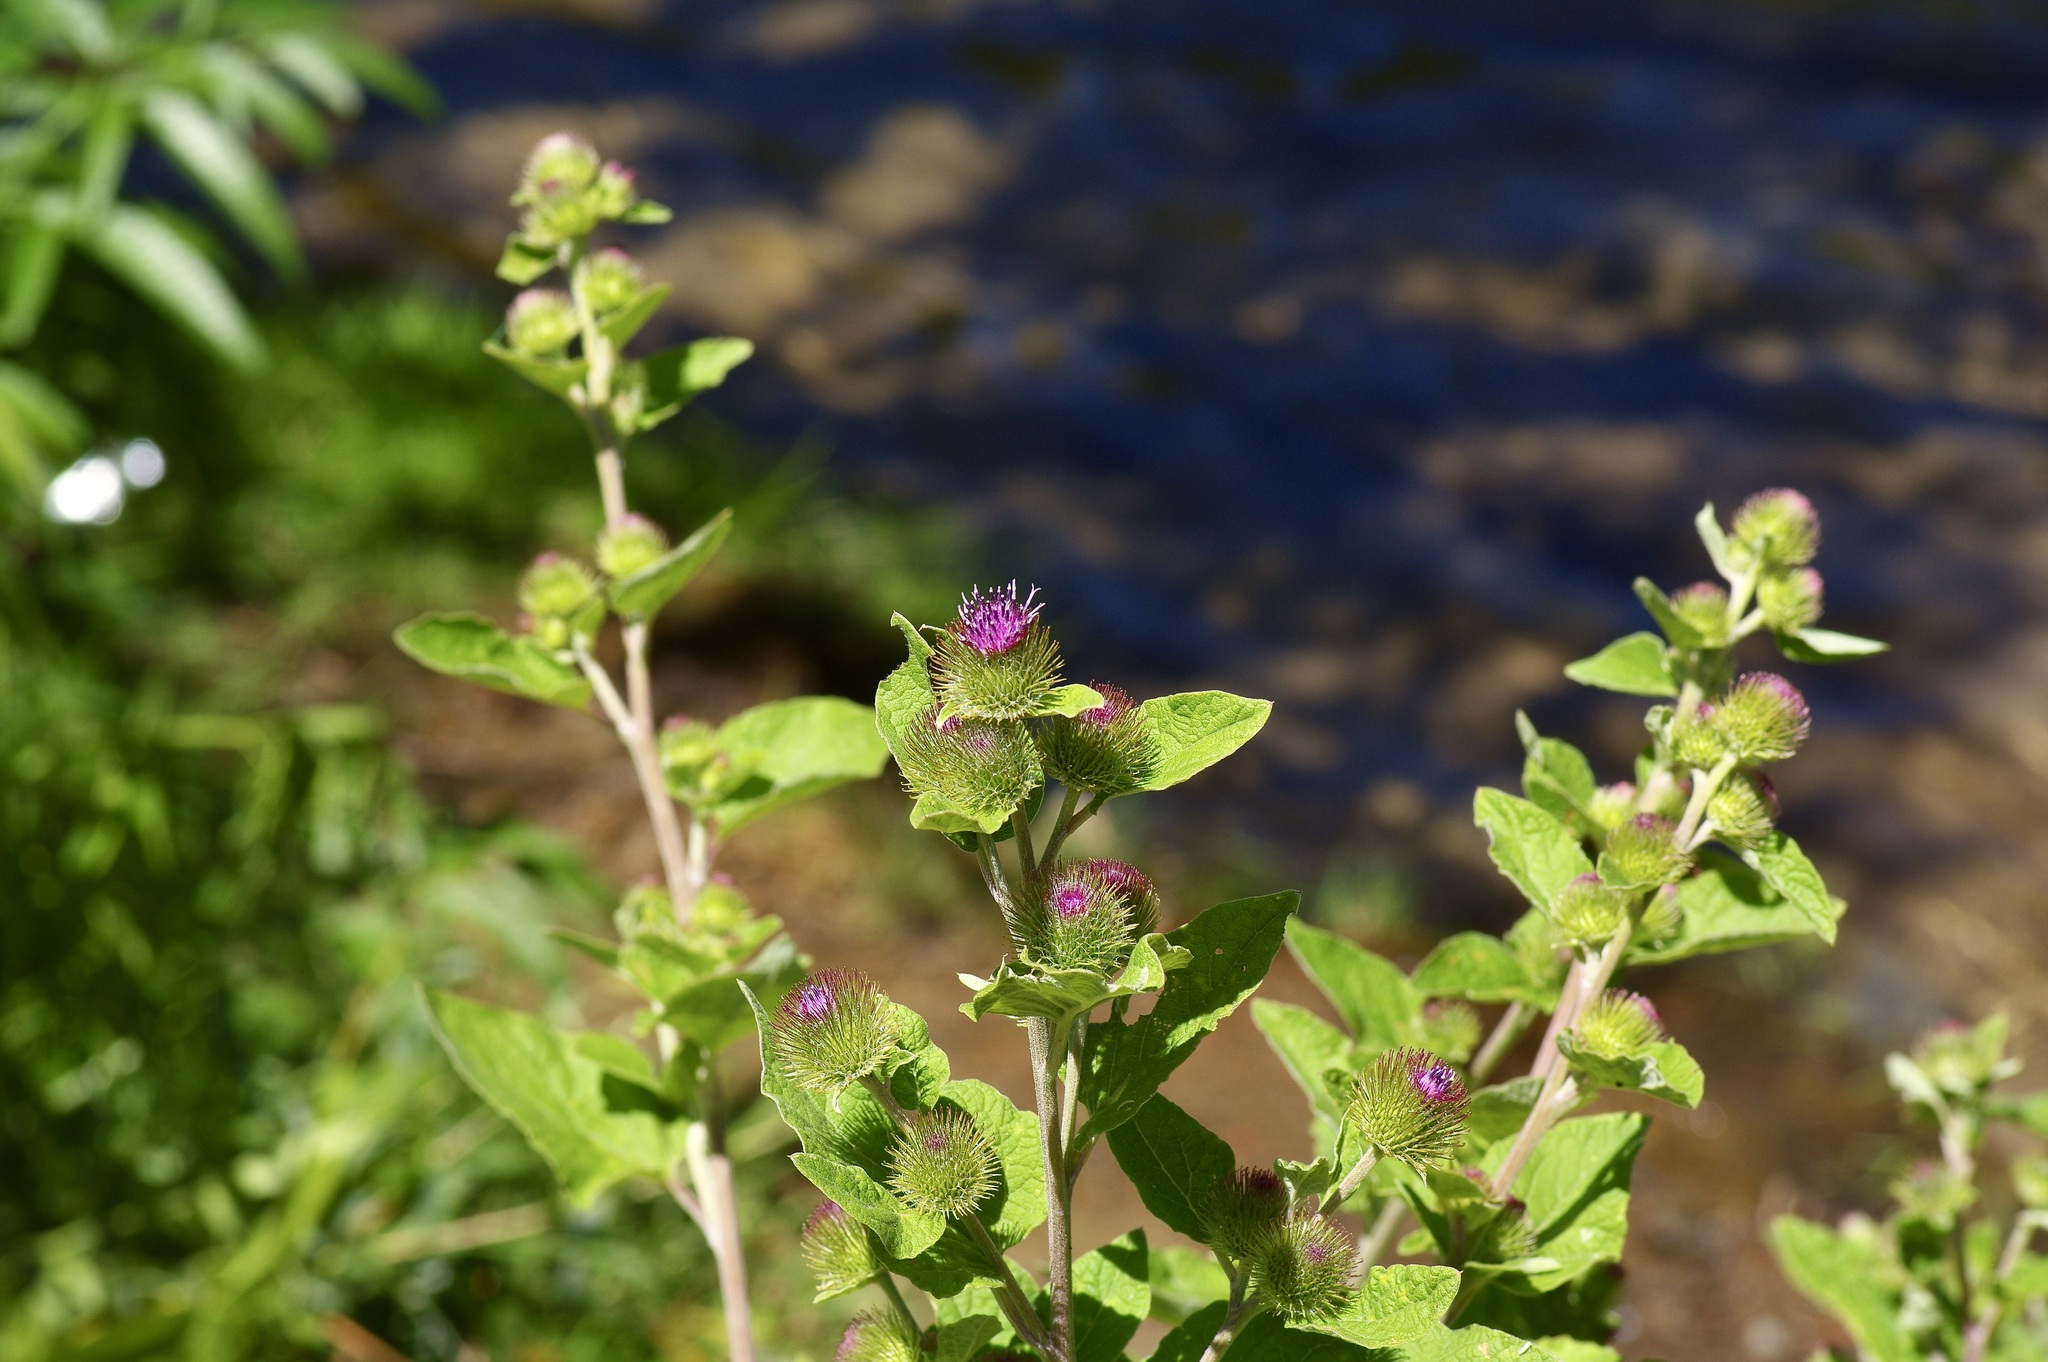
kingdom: Plantae
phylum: Tracheophyta
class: Magnoliopsida
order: Asterales
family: Asteraceae
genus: Arctium
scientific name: Arctium minus
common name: Lesser burdock
